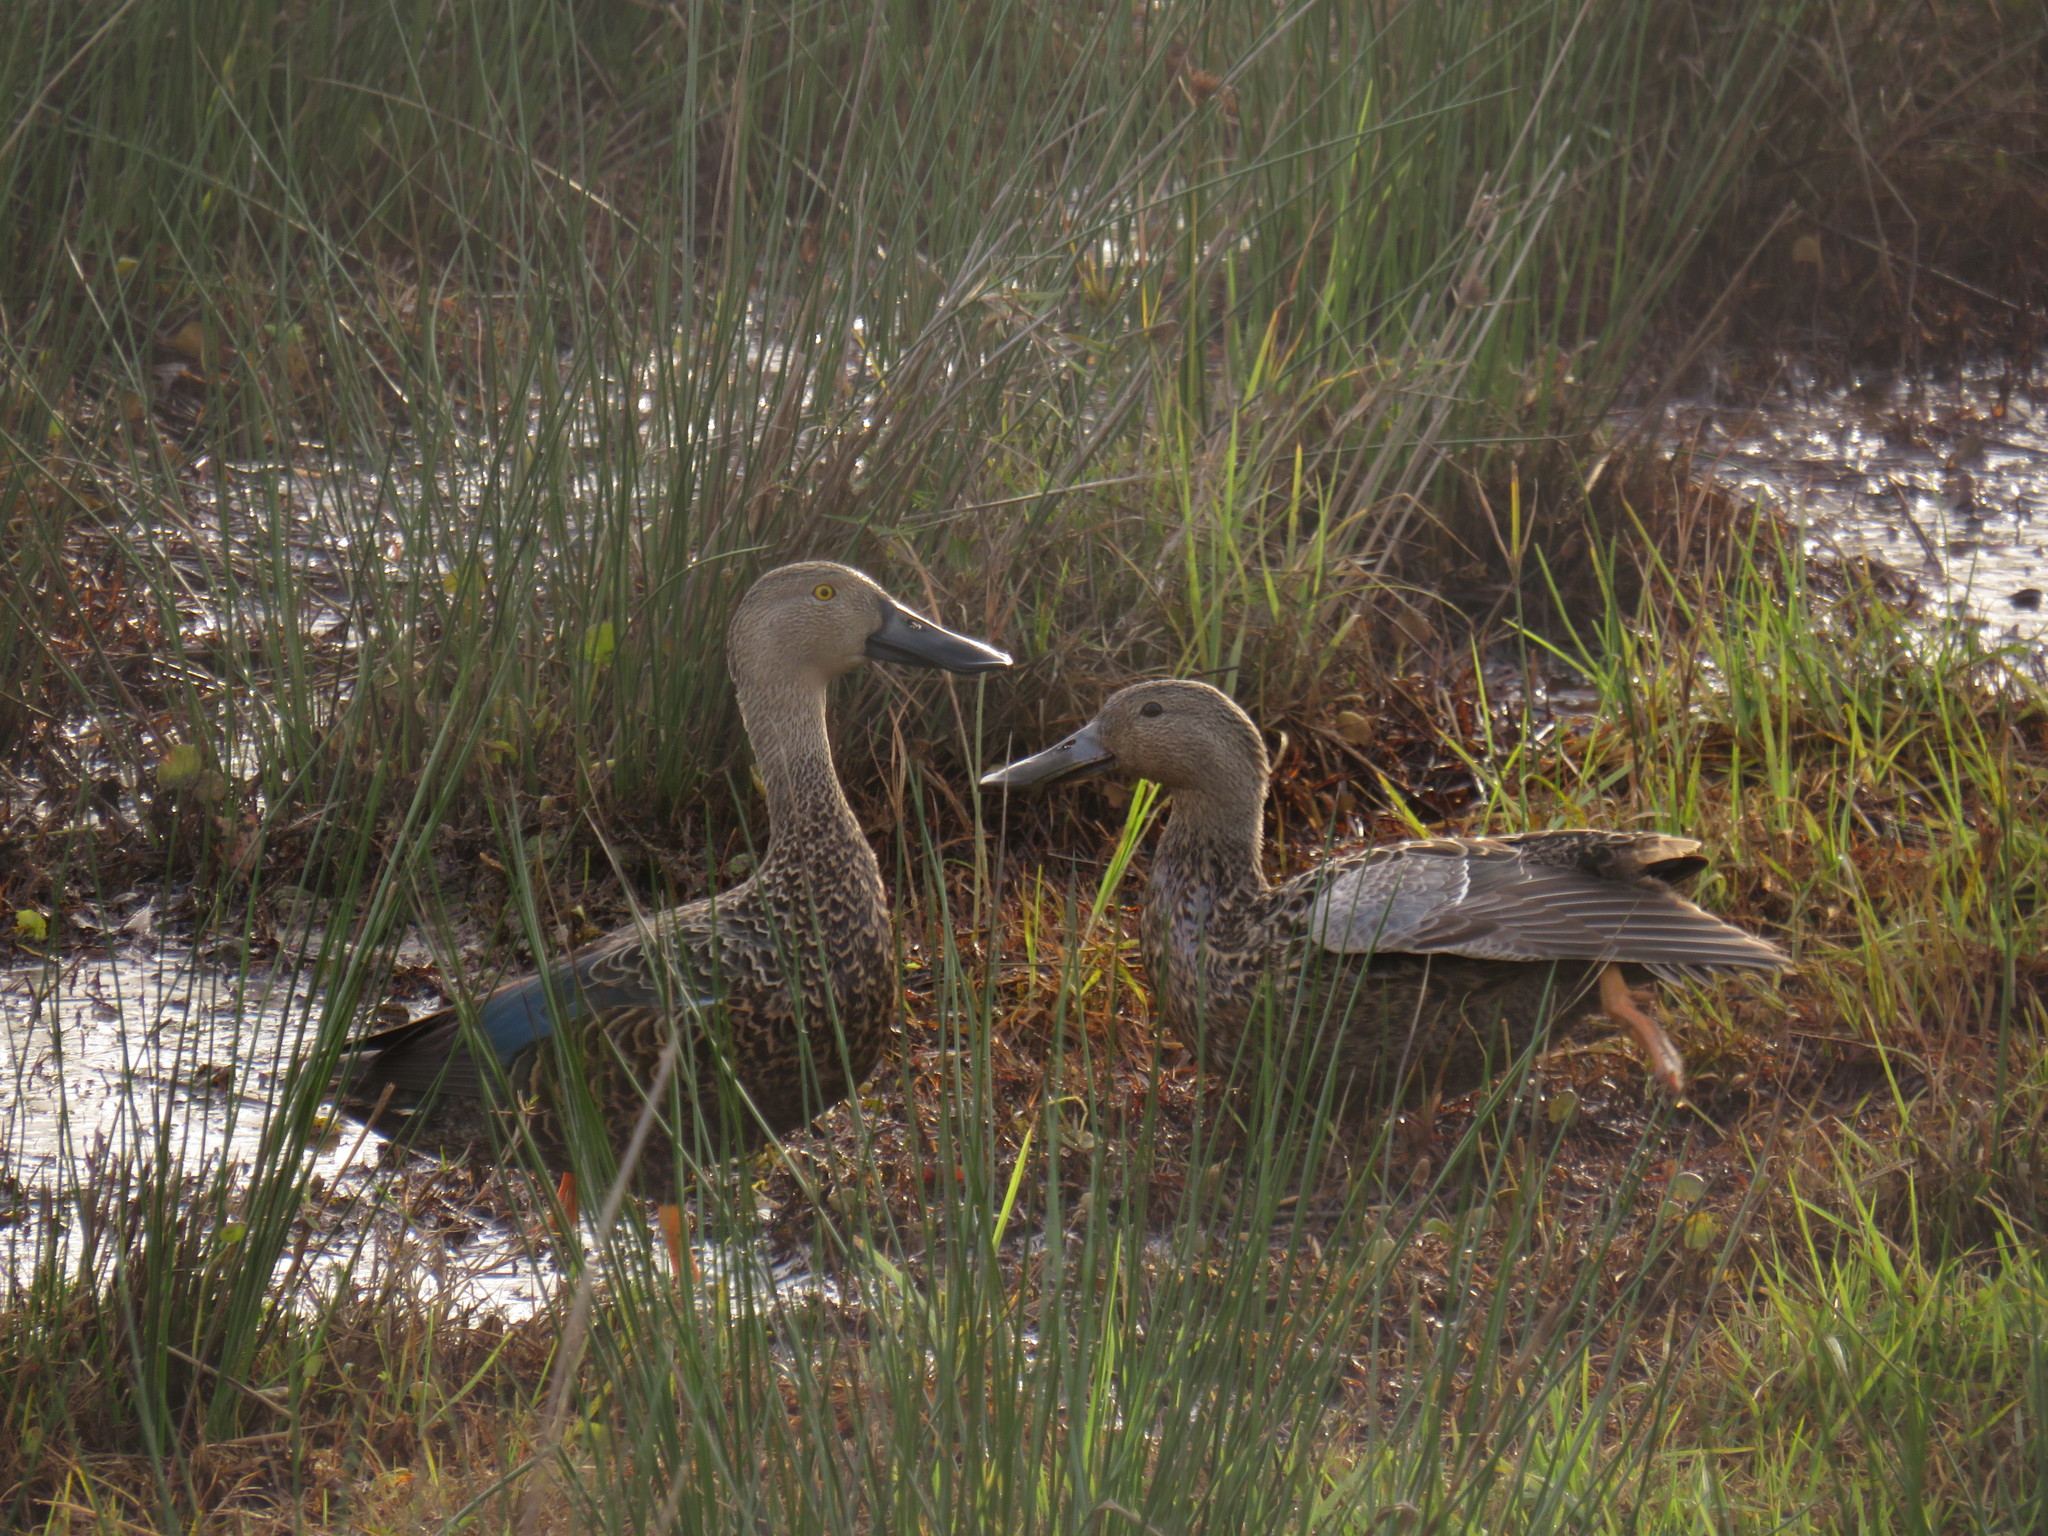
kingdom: Animalia
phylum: Chordata
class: Aves
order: Anseriformes
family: Anatidae
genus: Spatula
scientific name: Spatula smithii
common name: Cape shoveler
